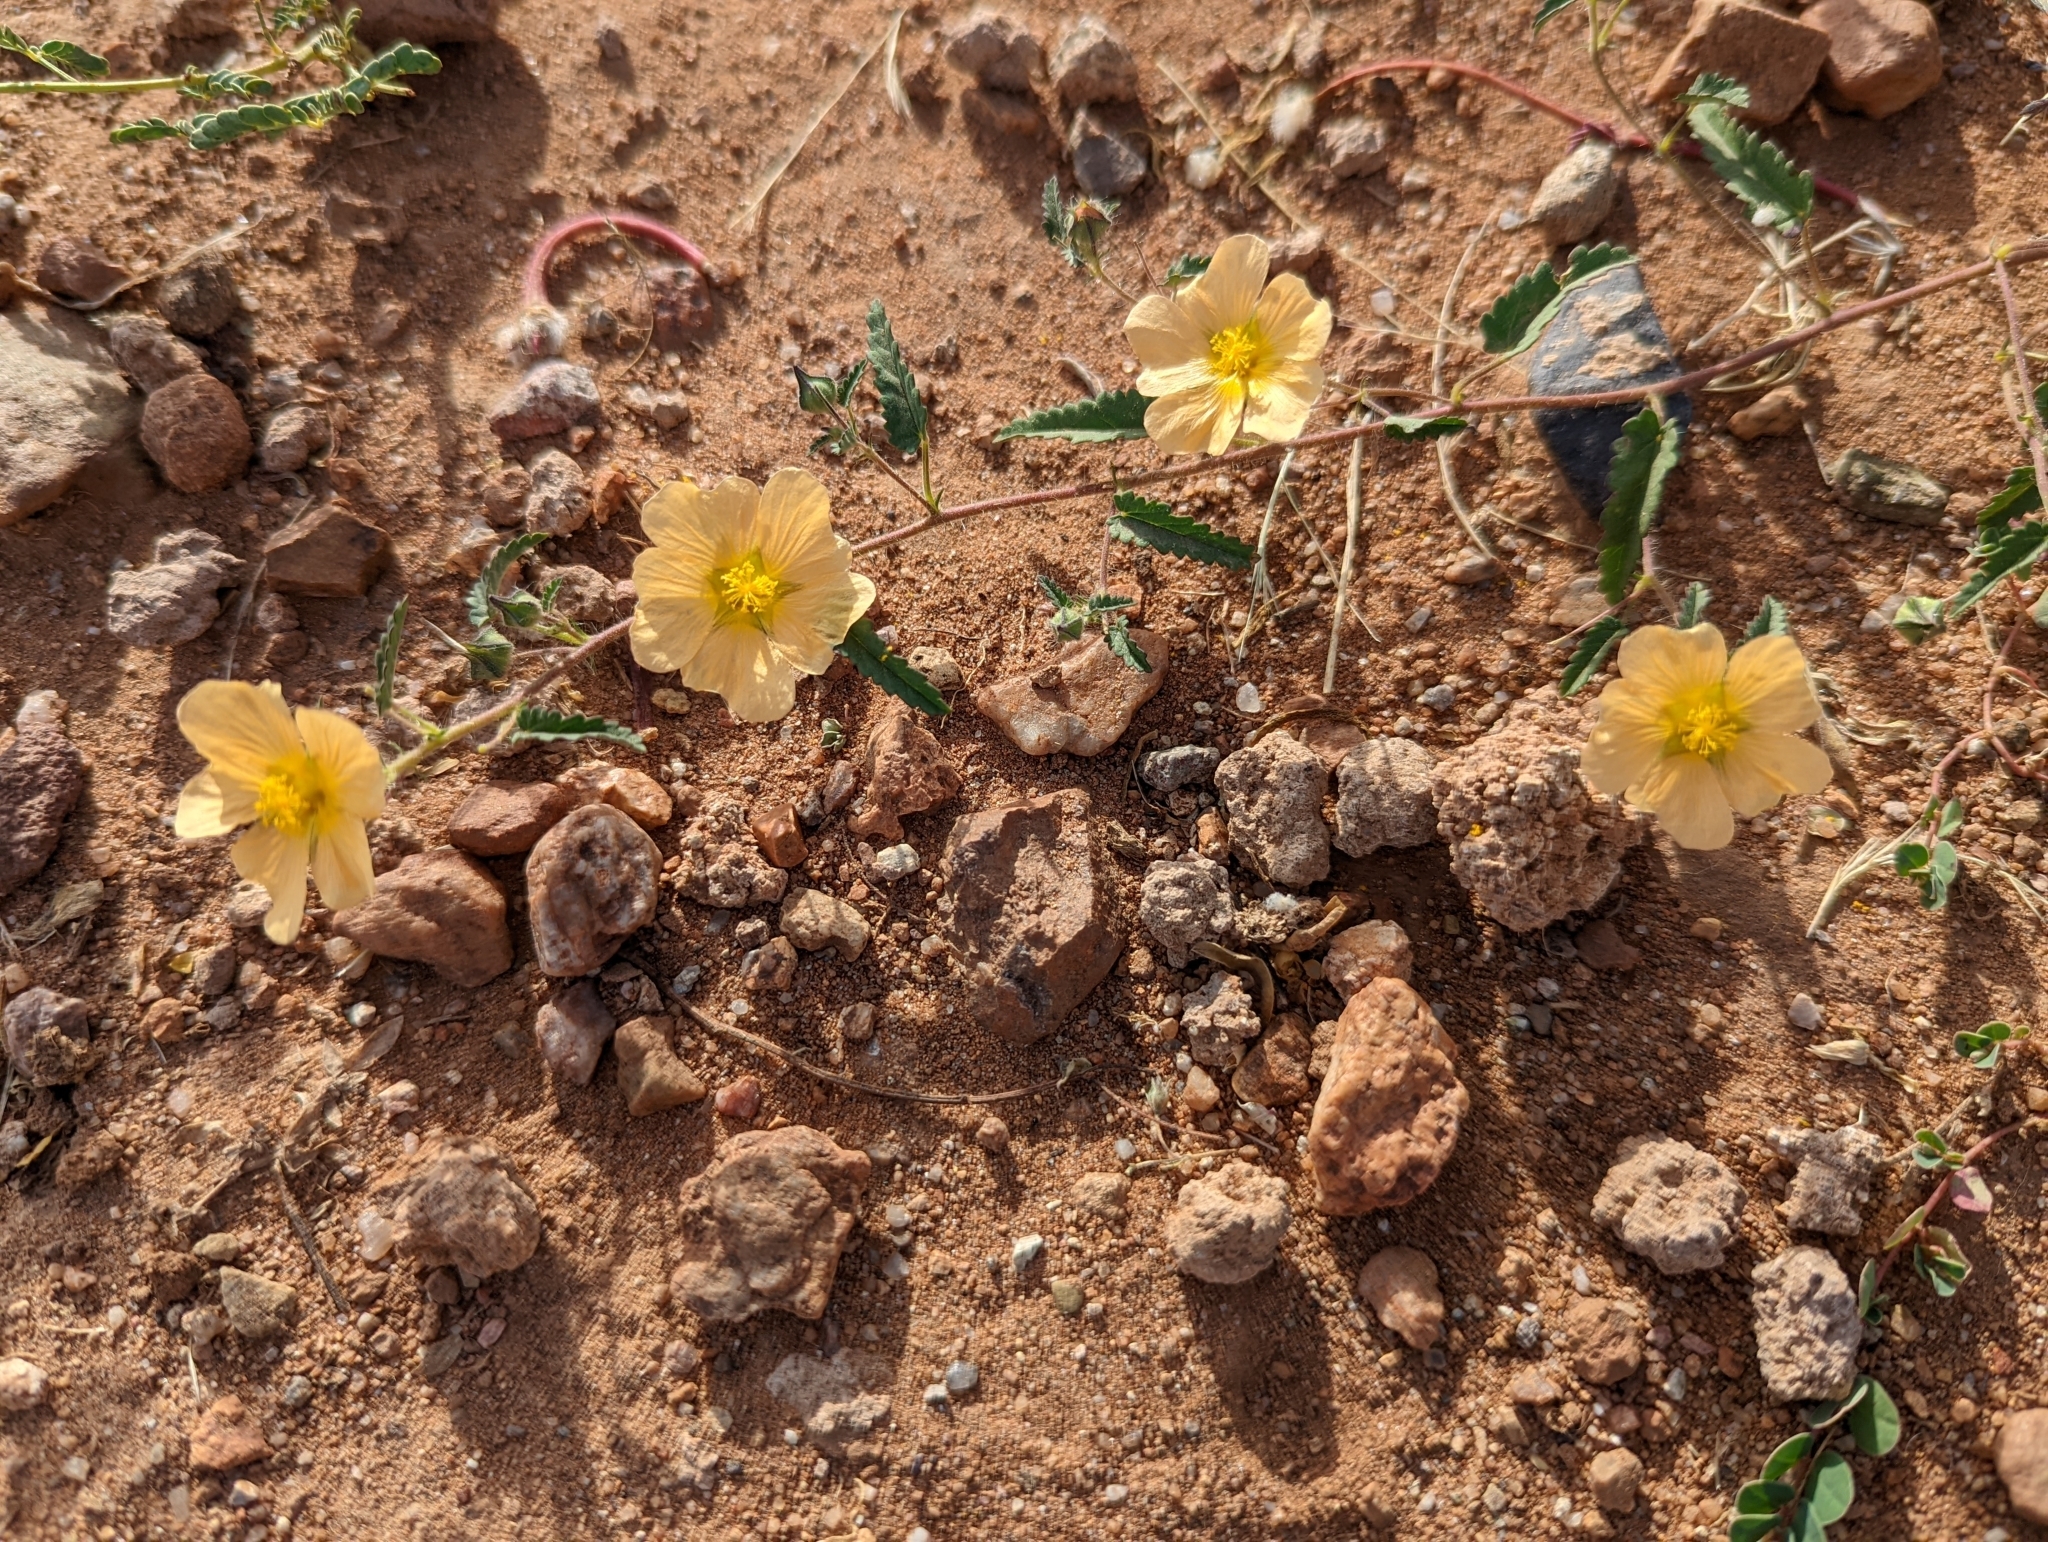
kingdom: Plantae
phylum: Tracheophyta
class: Magnoliopsida
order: Malvales
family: Malvaceae
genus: Sida
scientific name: Sida abutilifolia
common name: Spreading fanpetals
